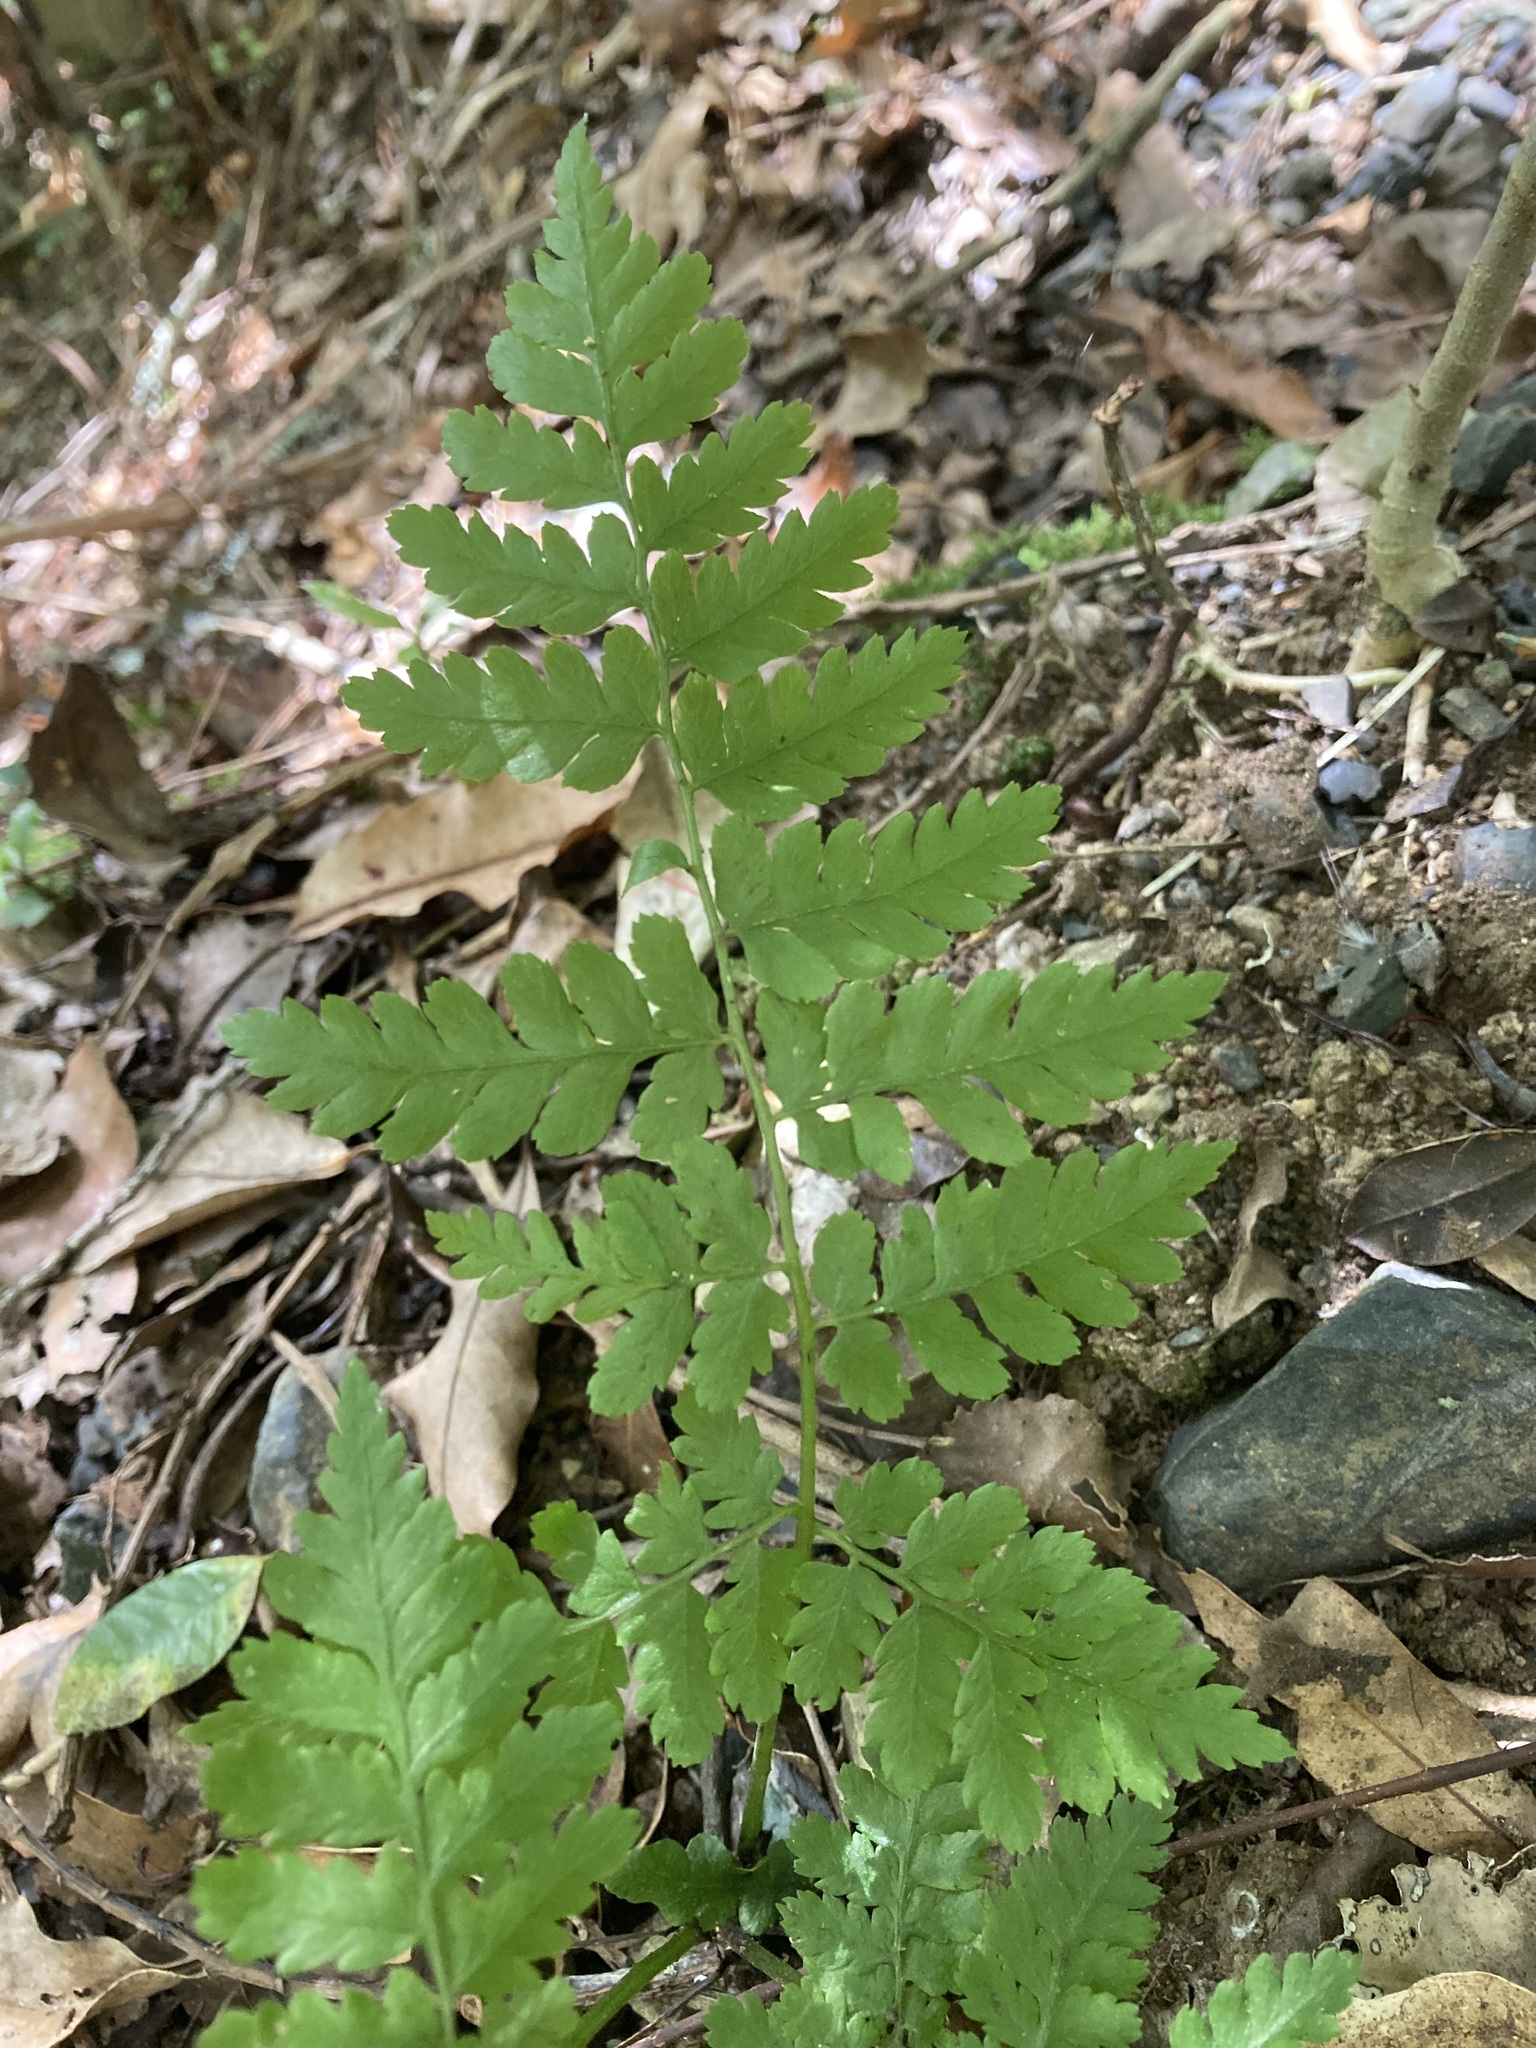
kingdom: Plantae
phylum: Tracheophyta
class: Polypodiopsida
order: Polypodiales
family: Athyriaceae
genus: Diplazium
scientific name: Diplazium australe
